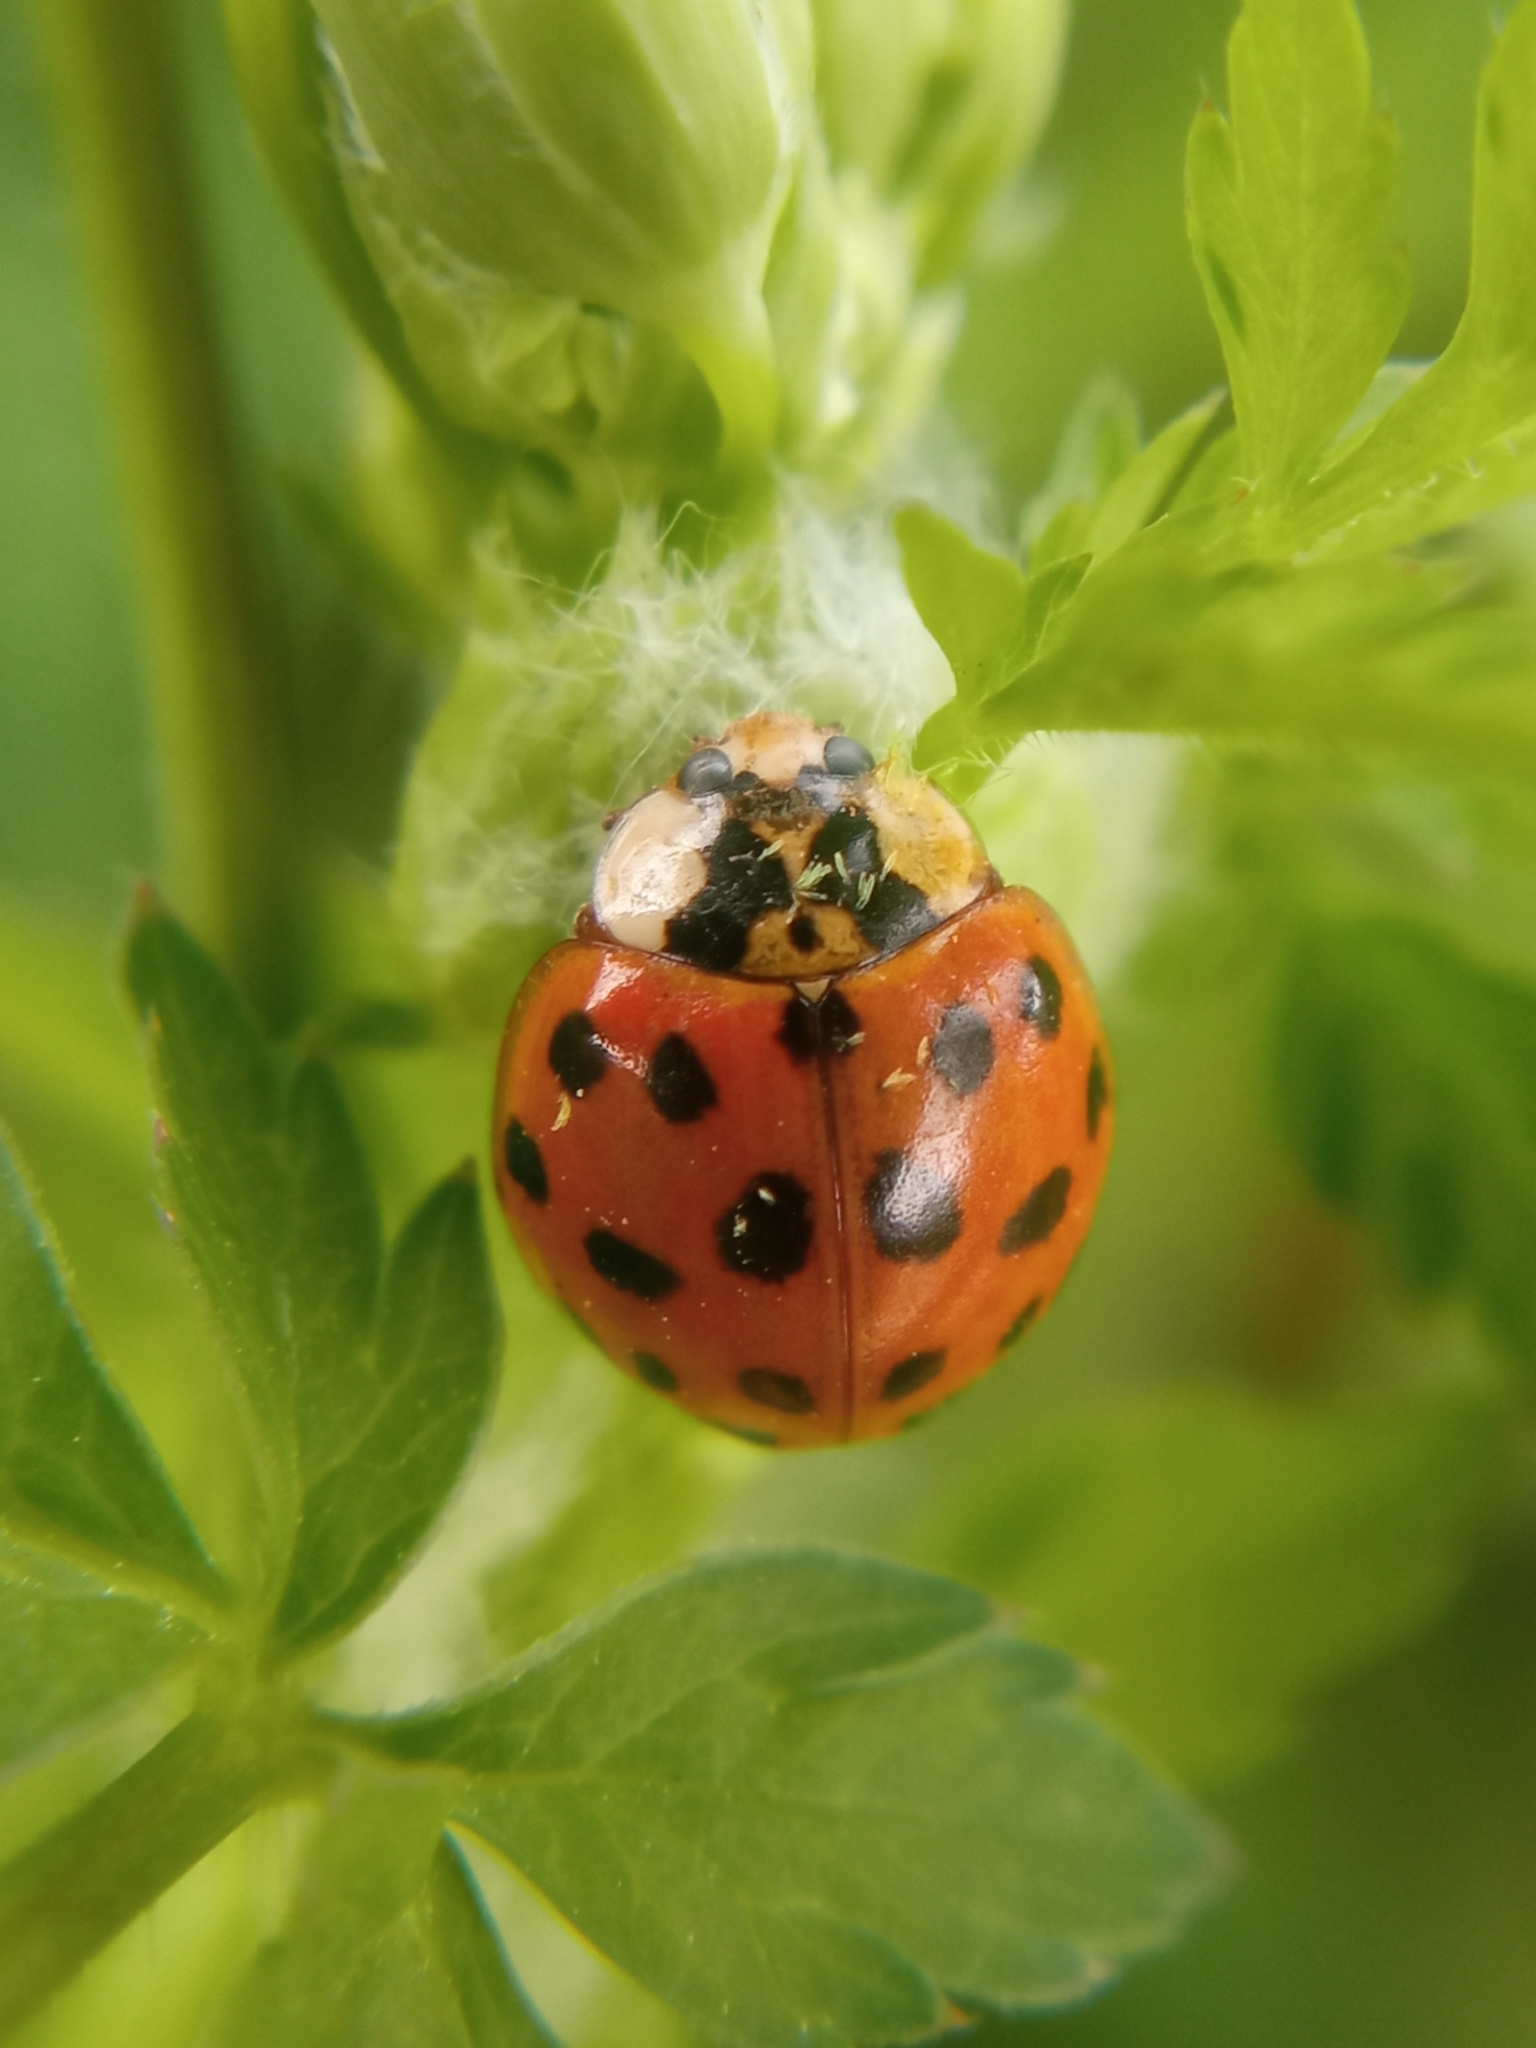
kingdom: Animalia
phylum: Arthropoda
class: Insecta
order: Coleoptera
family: Coccinellidae
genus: Harmonia
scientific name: Harmonia axyridis
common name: Harlequin ladybird
